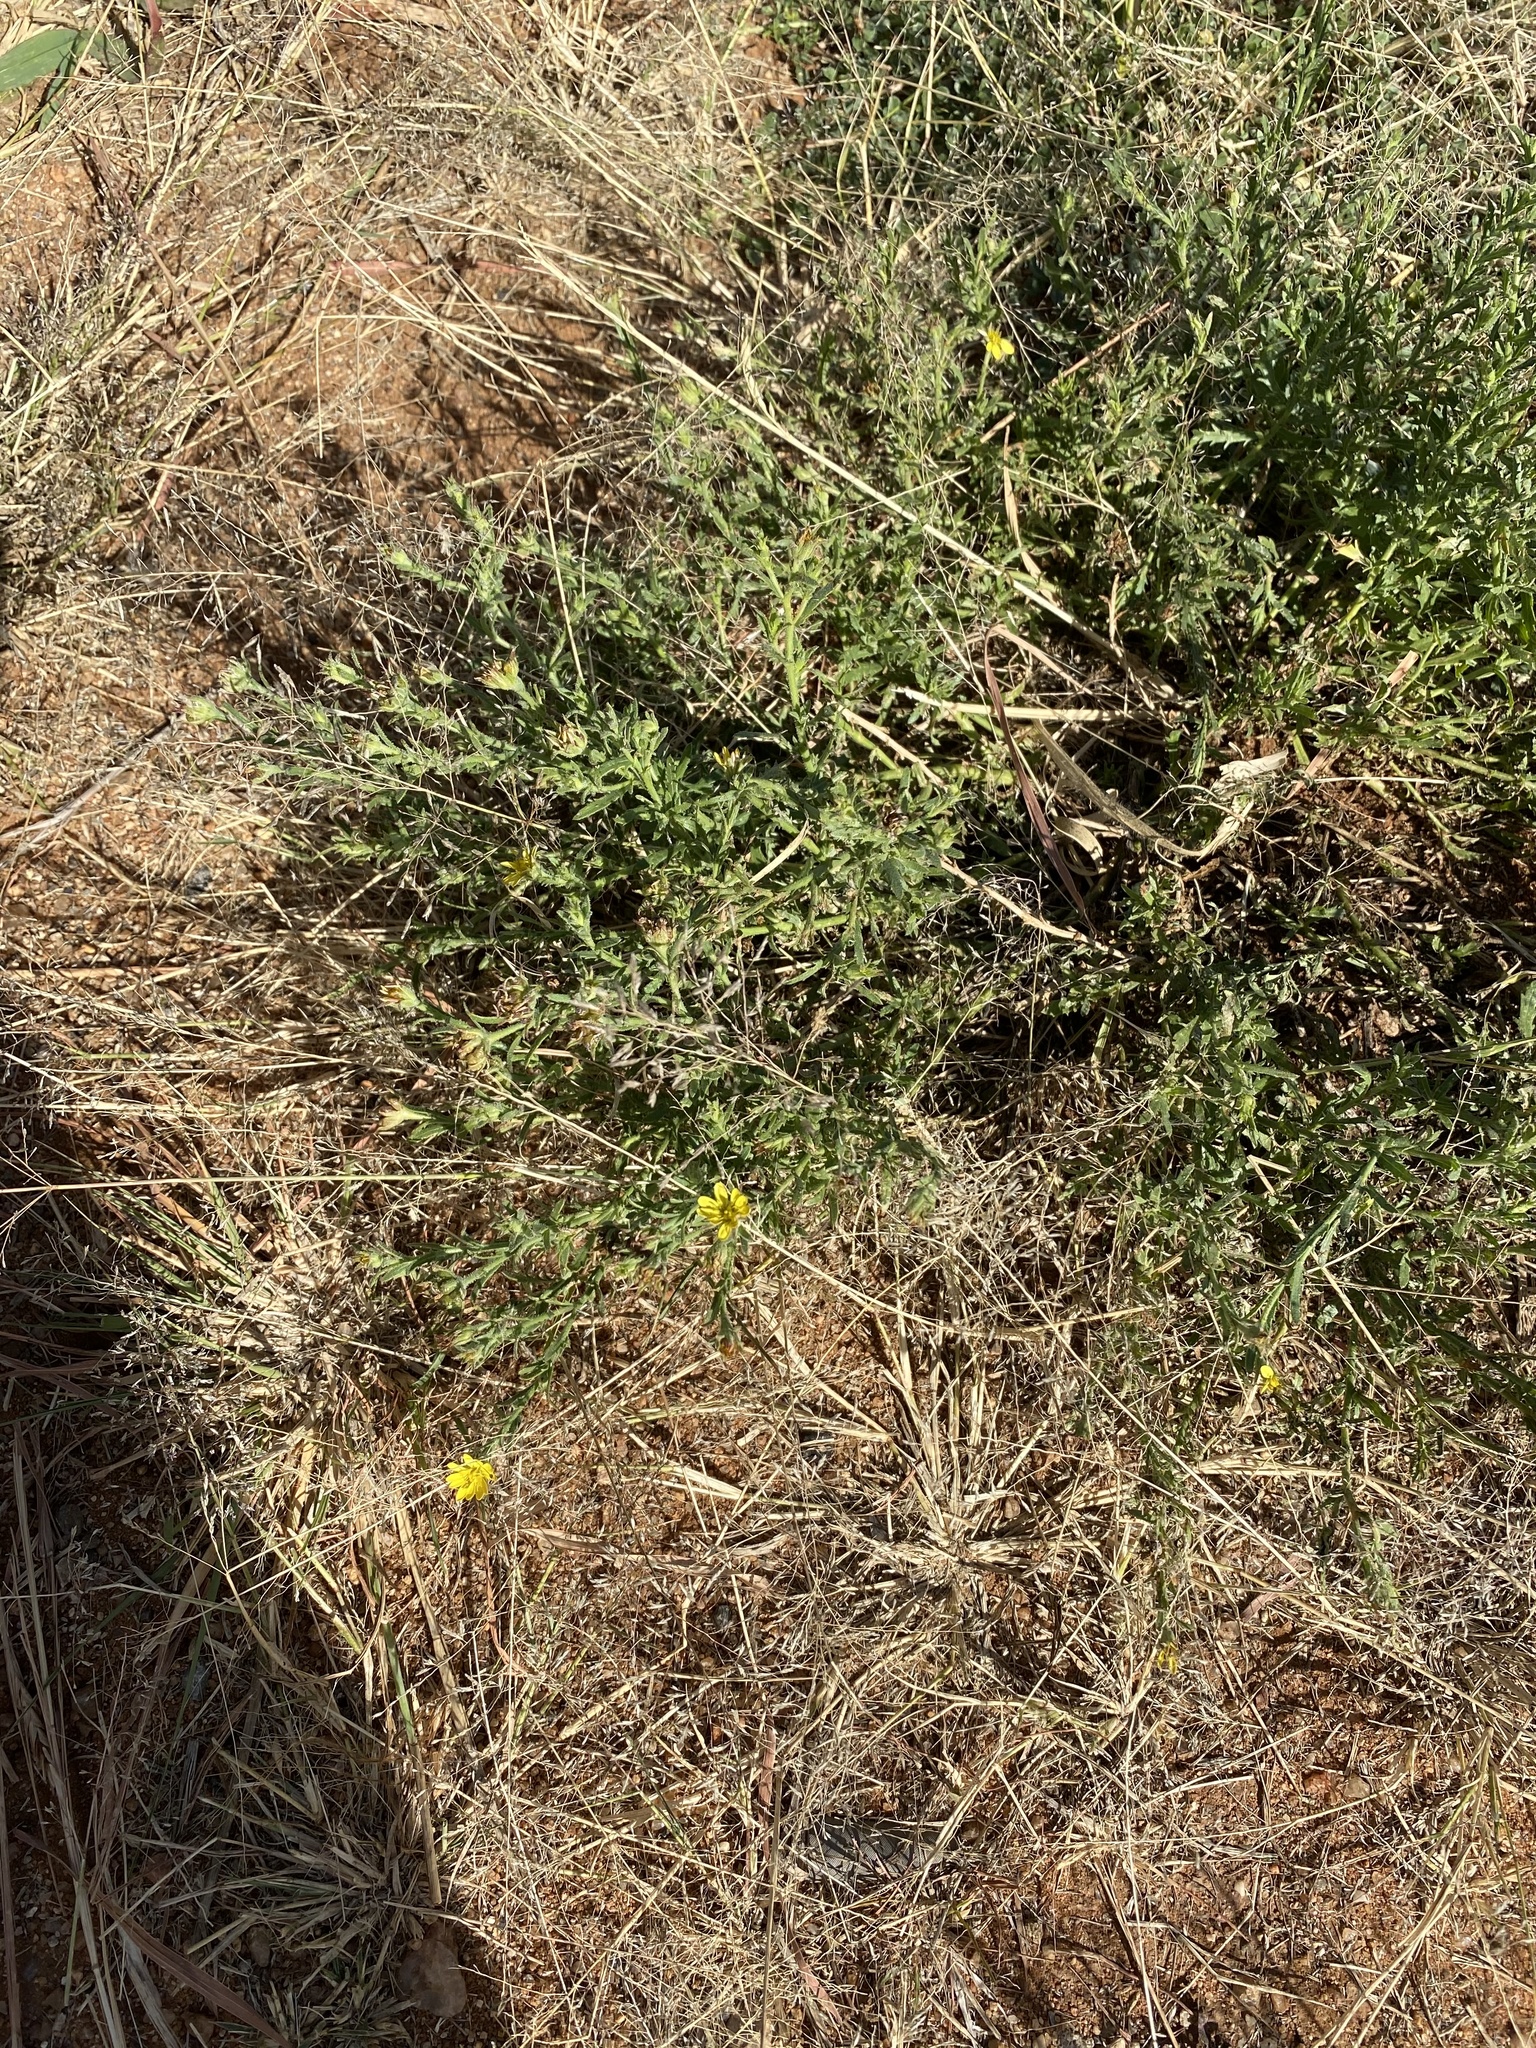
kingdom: Plantae
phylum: Tracheophyta
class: Magnoliopsida
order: Asterales
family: Asteraceae
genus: Osteospermum
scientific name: Osteospermum muricatum
